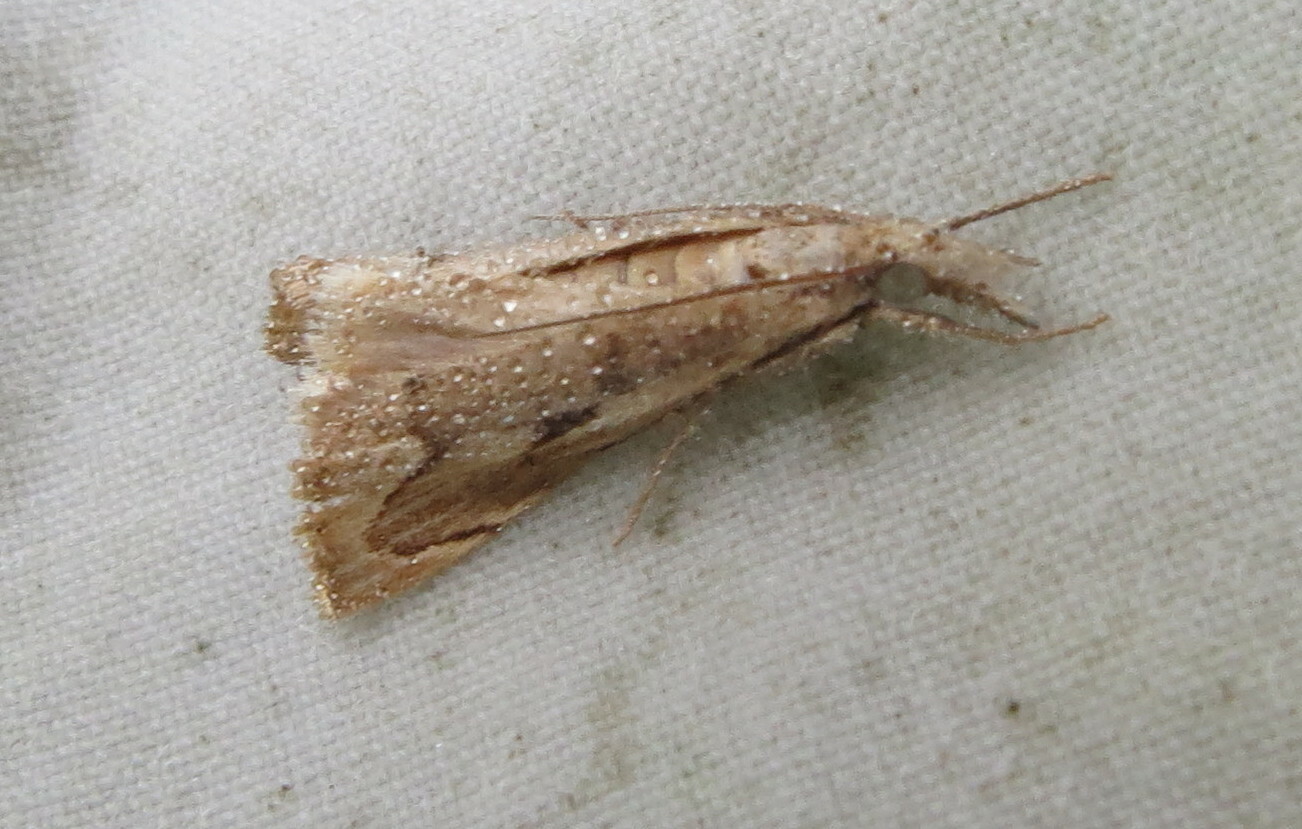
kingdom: Animalia
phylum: Arthropoda
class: Insecta
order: Lepidoptera
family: Crambidae
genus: Agriphila
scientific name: Agriphila geniculea
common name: Elbow-stripe grass-veneer
